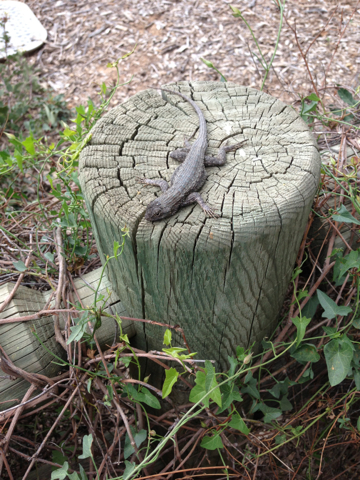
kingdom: Animalia
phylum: Chordata
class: Squamata
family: Phrynosomatidae
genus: Sceloporus
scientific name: Sceloporus occidentalis
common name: Western fence lizard
